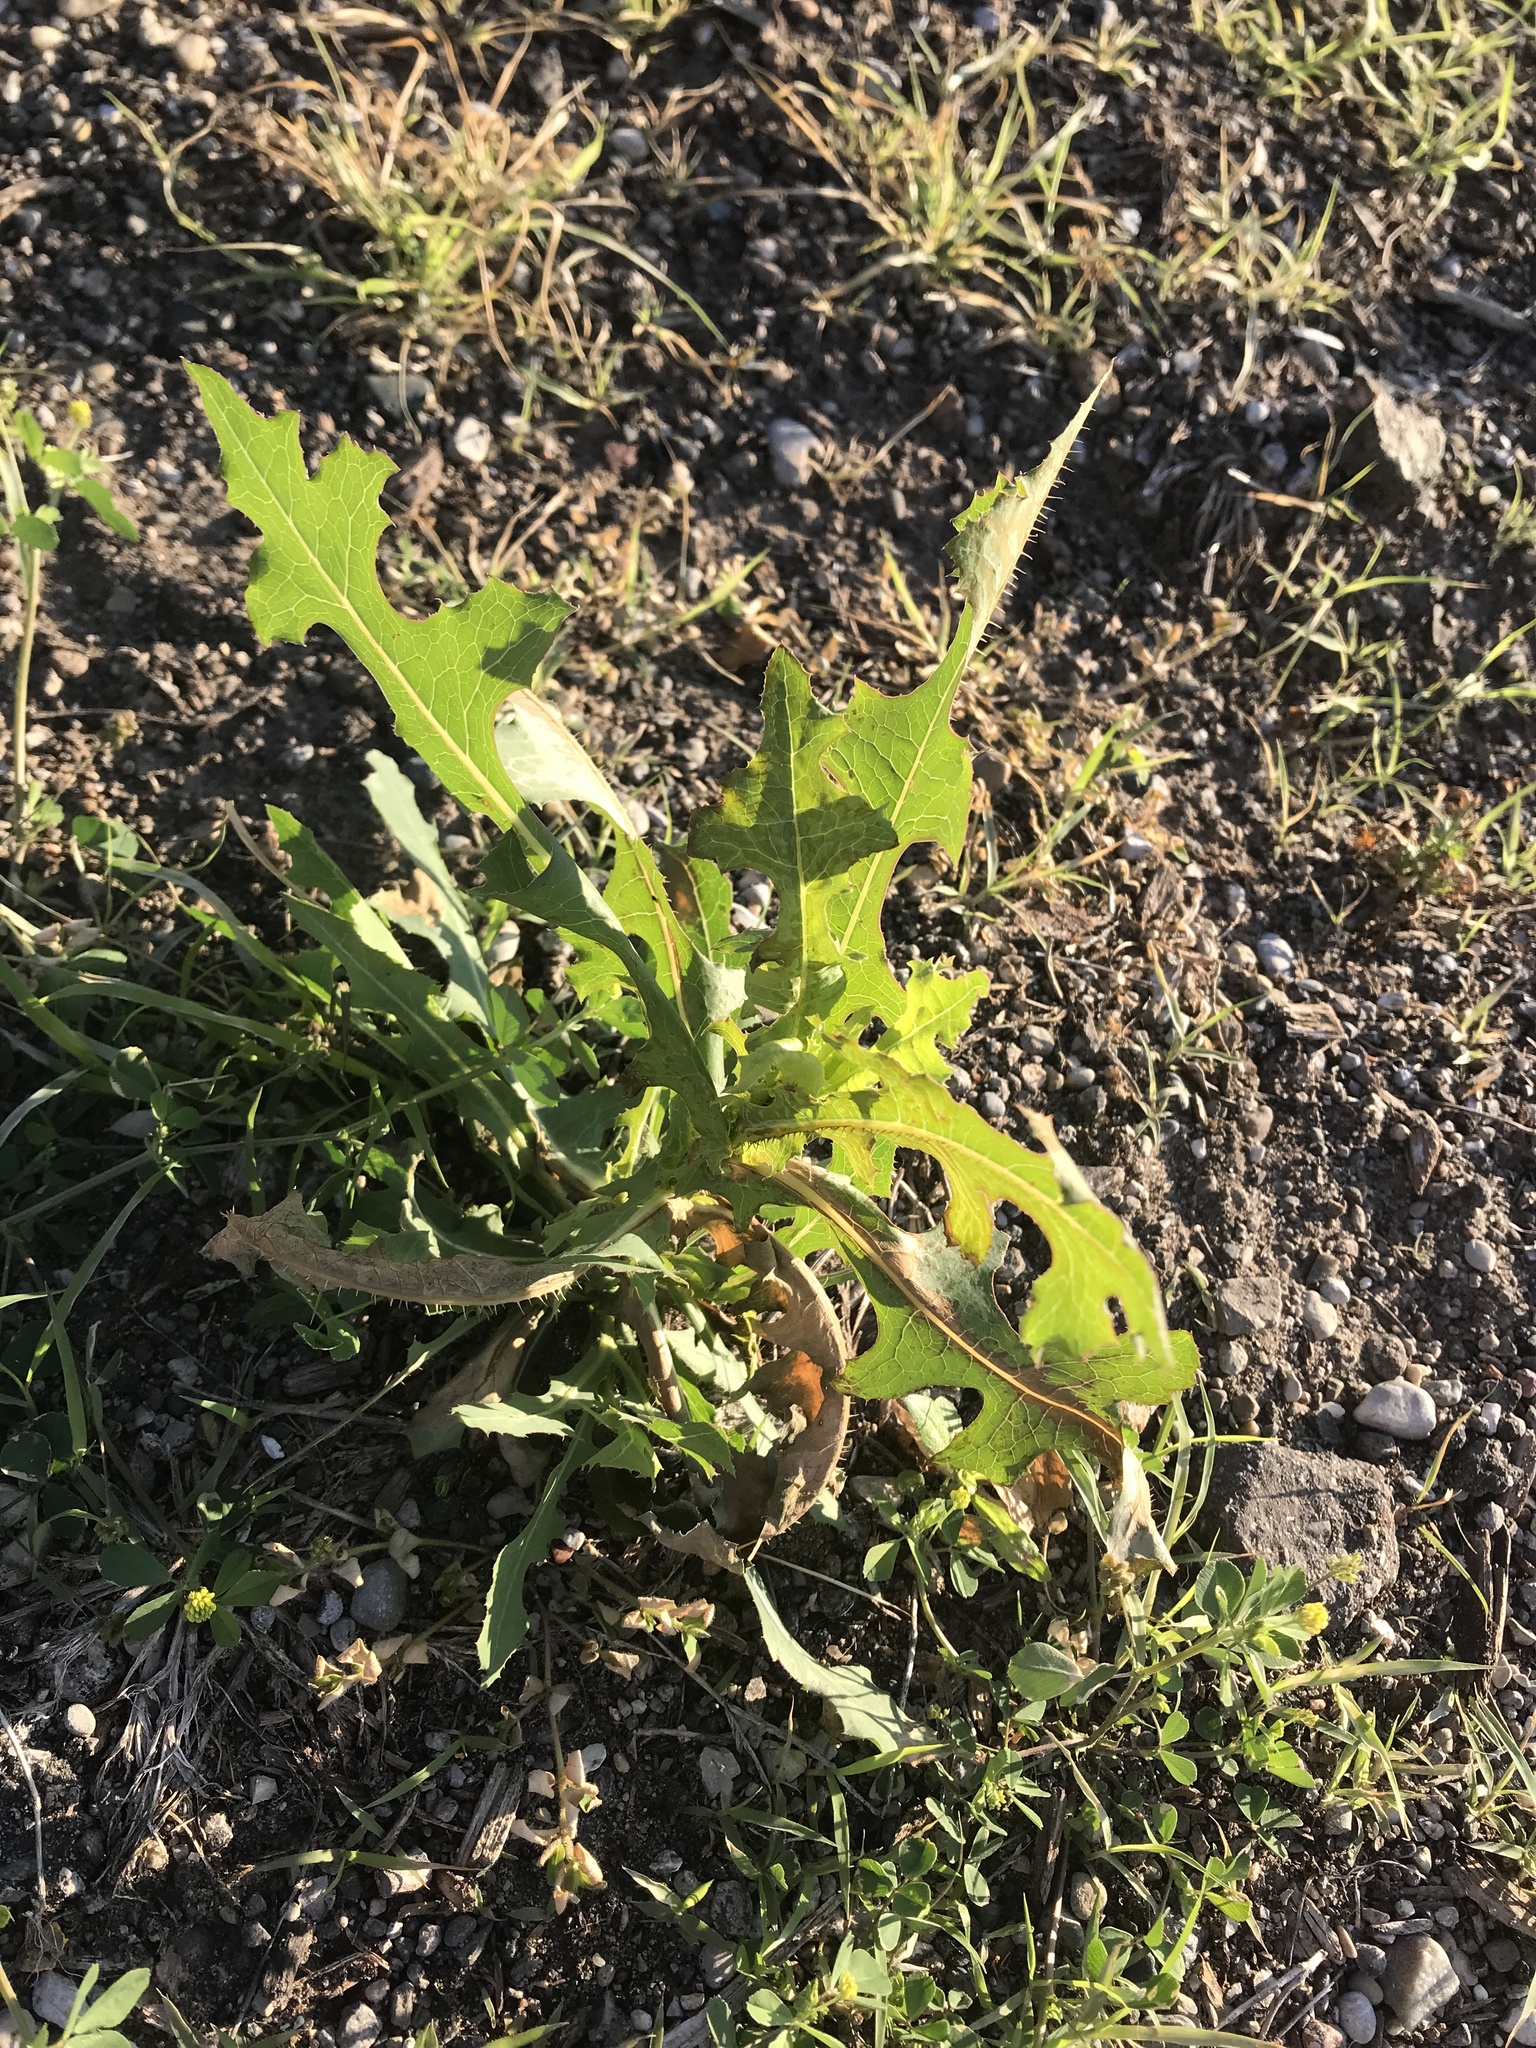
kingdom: Plantae
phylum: Tracheophyta
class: Magnoliopsida
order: Asterales
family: Asteraceae
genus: Lactuca
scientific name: Lactuca serriola
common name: Prickly lettuce
